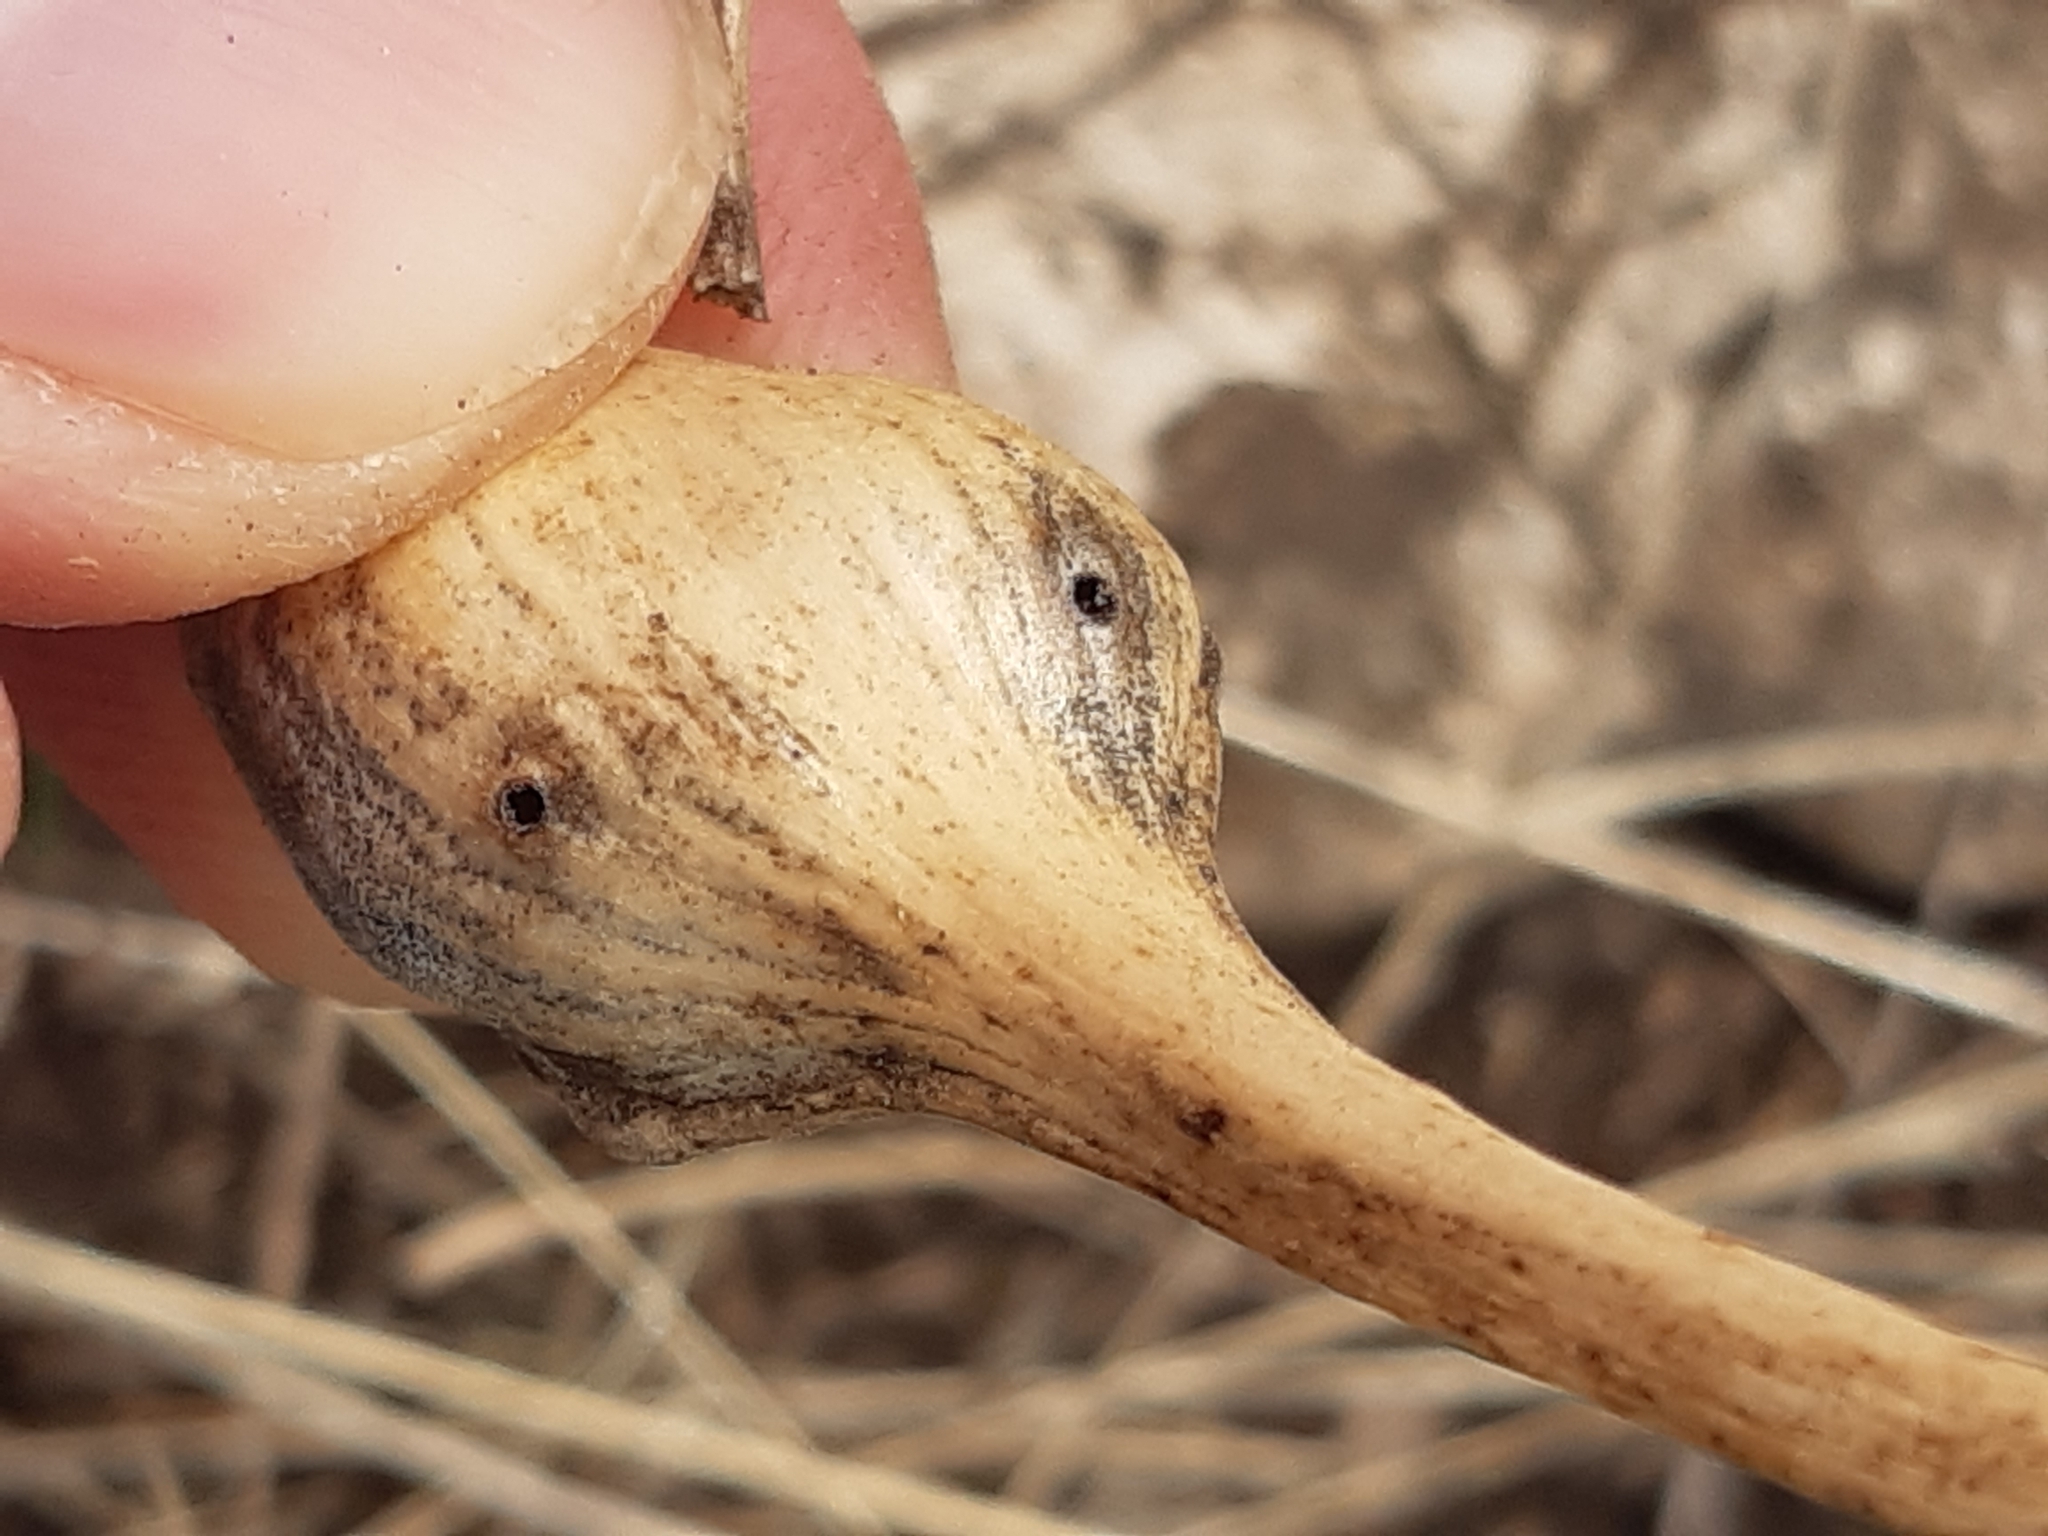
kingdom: Animalia
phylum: Arthropoda
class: Insecta
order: Diptera
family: Cecidomyiidae
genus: Lasioptera
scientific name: Lasioptera eryngii
